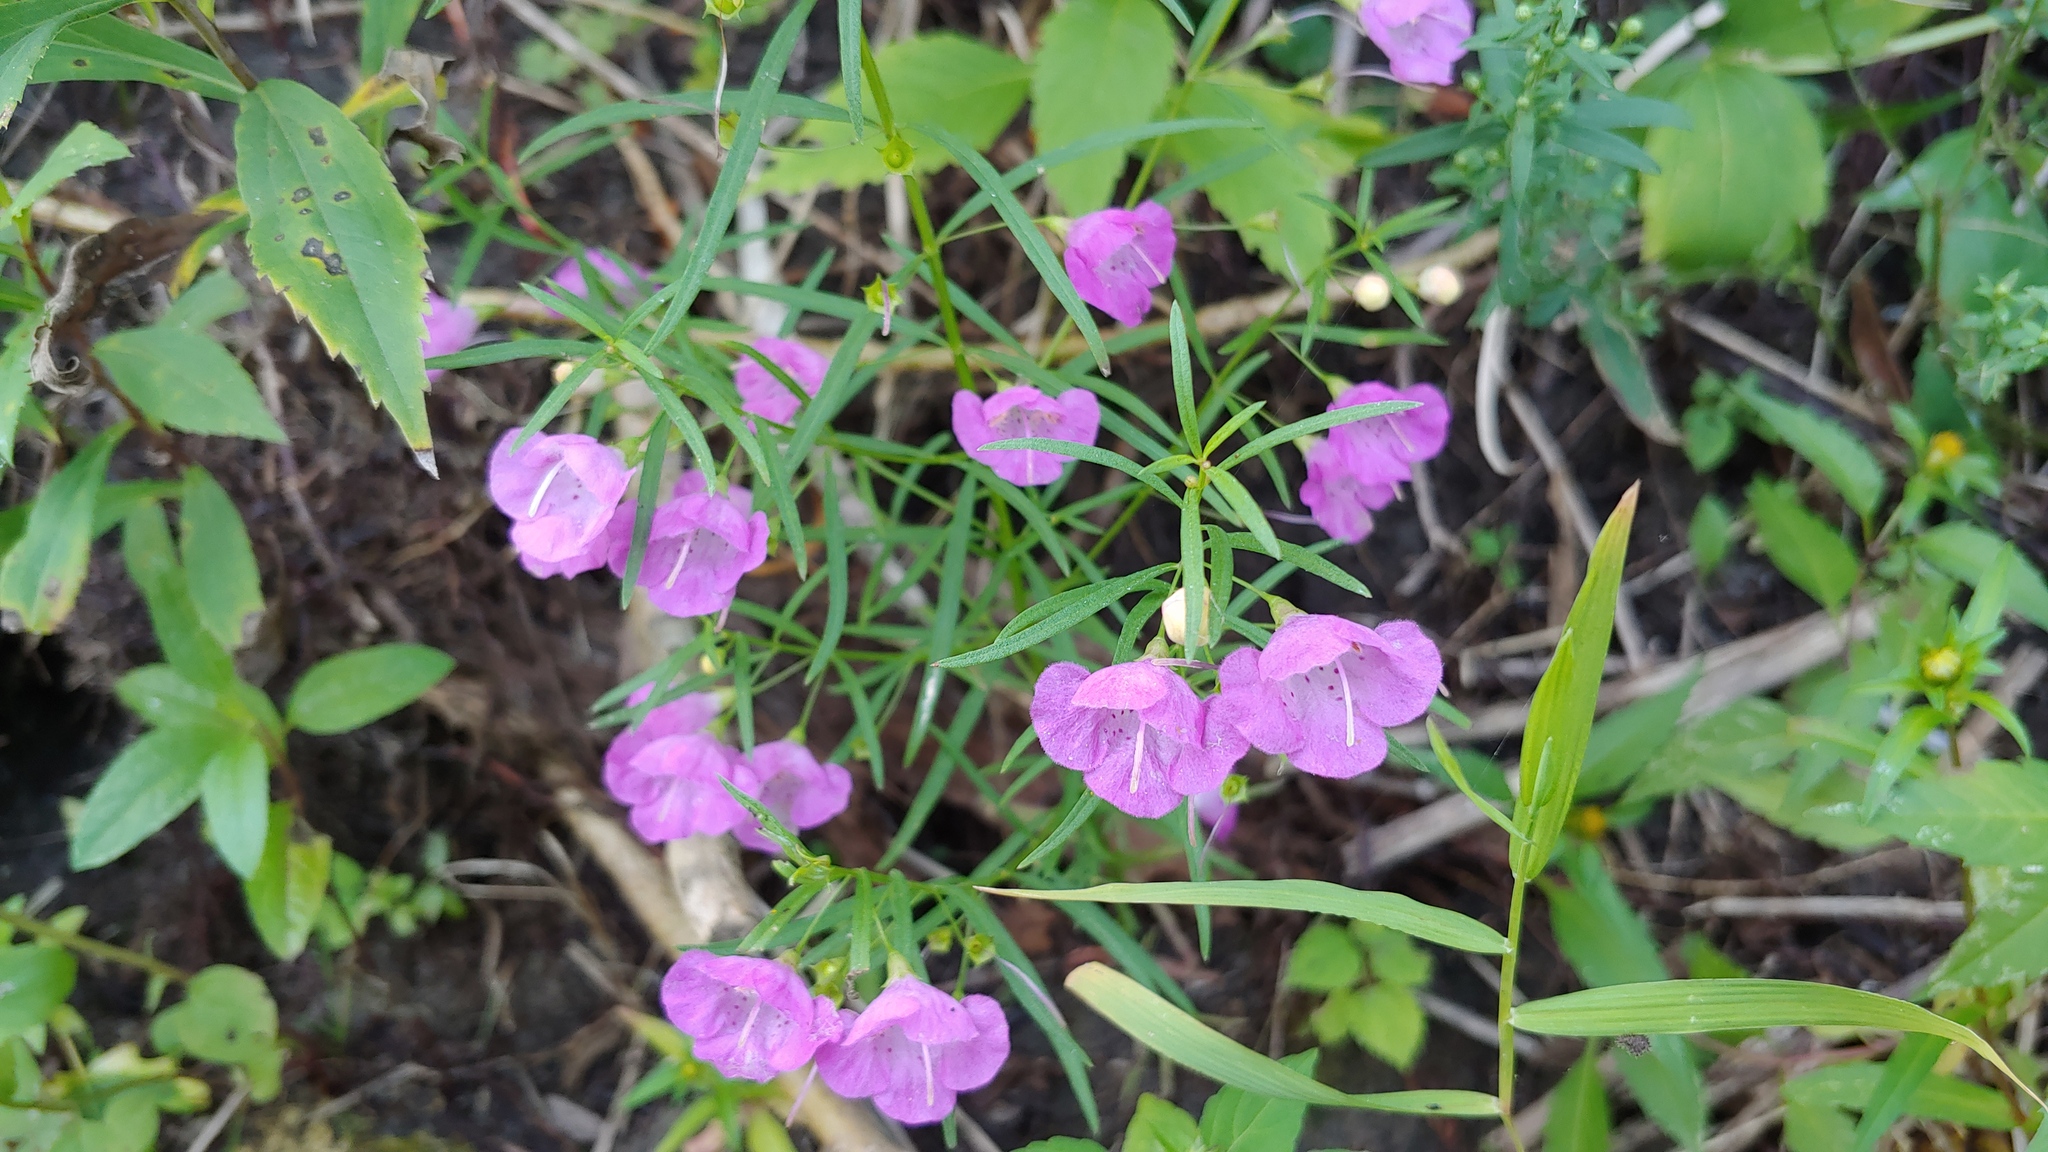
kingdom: Plantae
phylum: Tracheophyta
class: Magnoliopsida
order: Lamiales
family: Orobanchaceae
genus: Agalinis
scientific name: Agalinis tenuifolia
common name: Slender agalinis
